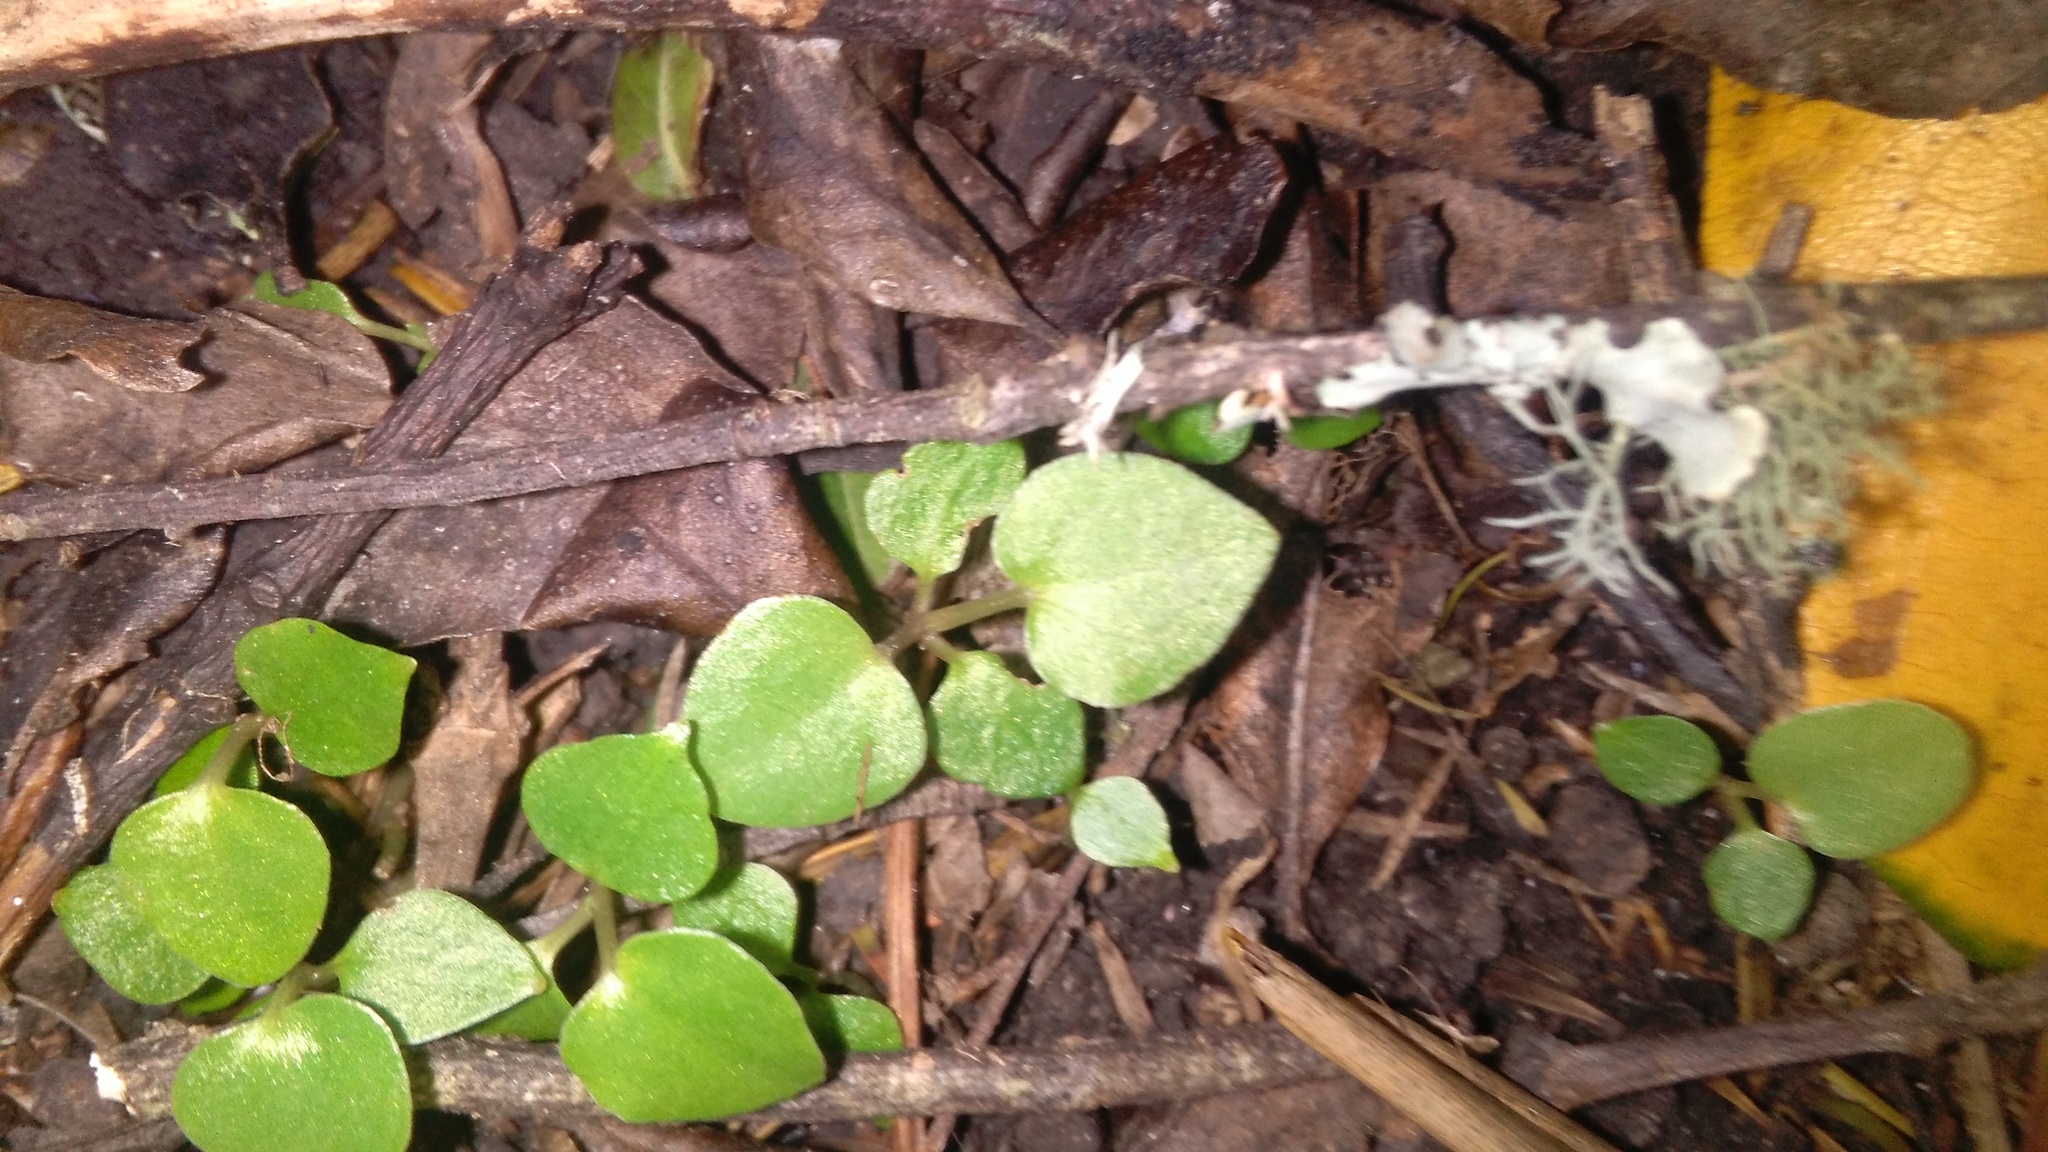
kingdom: Plantae
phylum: Tracheophyta
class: Magnoliopsida
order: Piperales
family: Piperaceae
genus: Macropiper
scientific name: Macropiper excelsum
